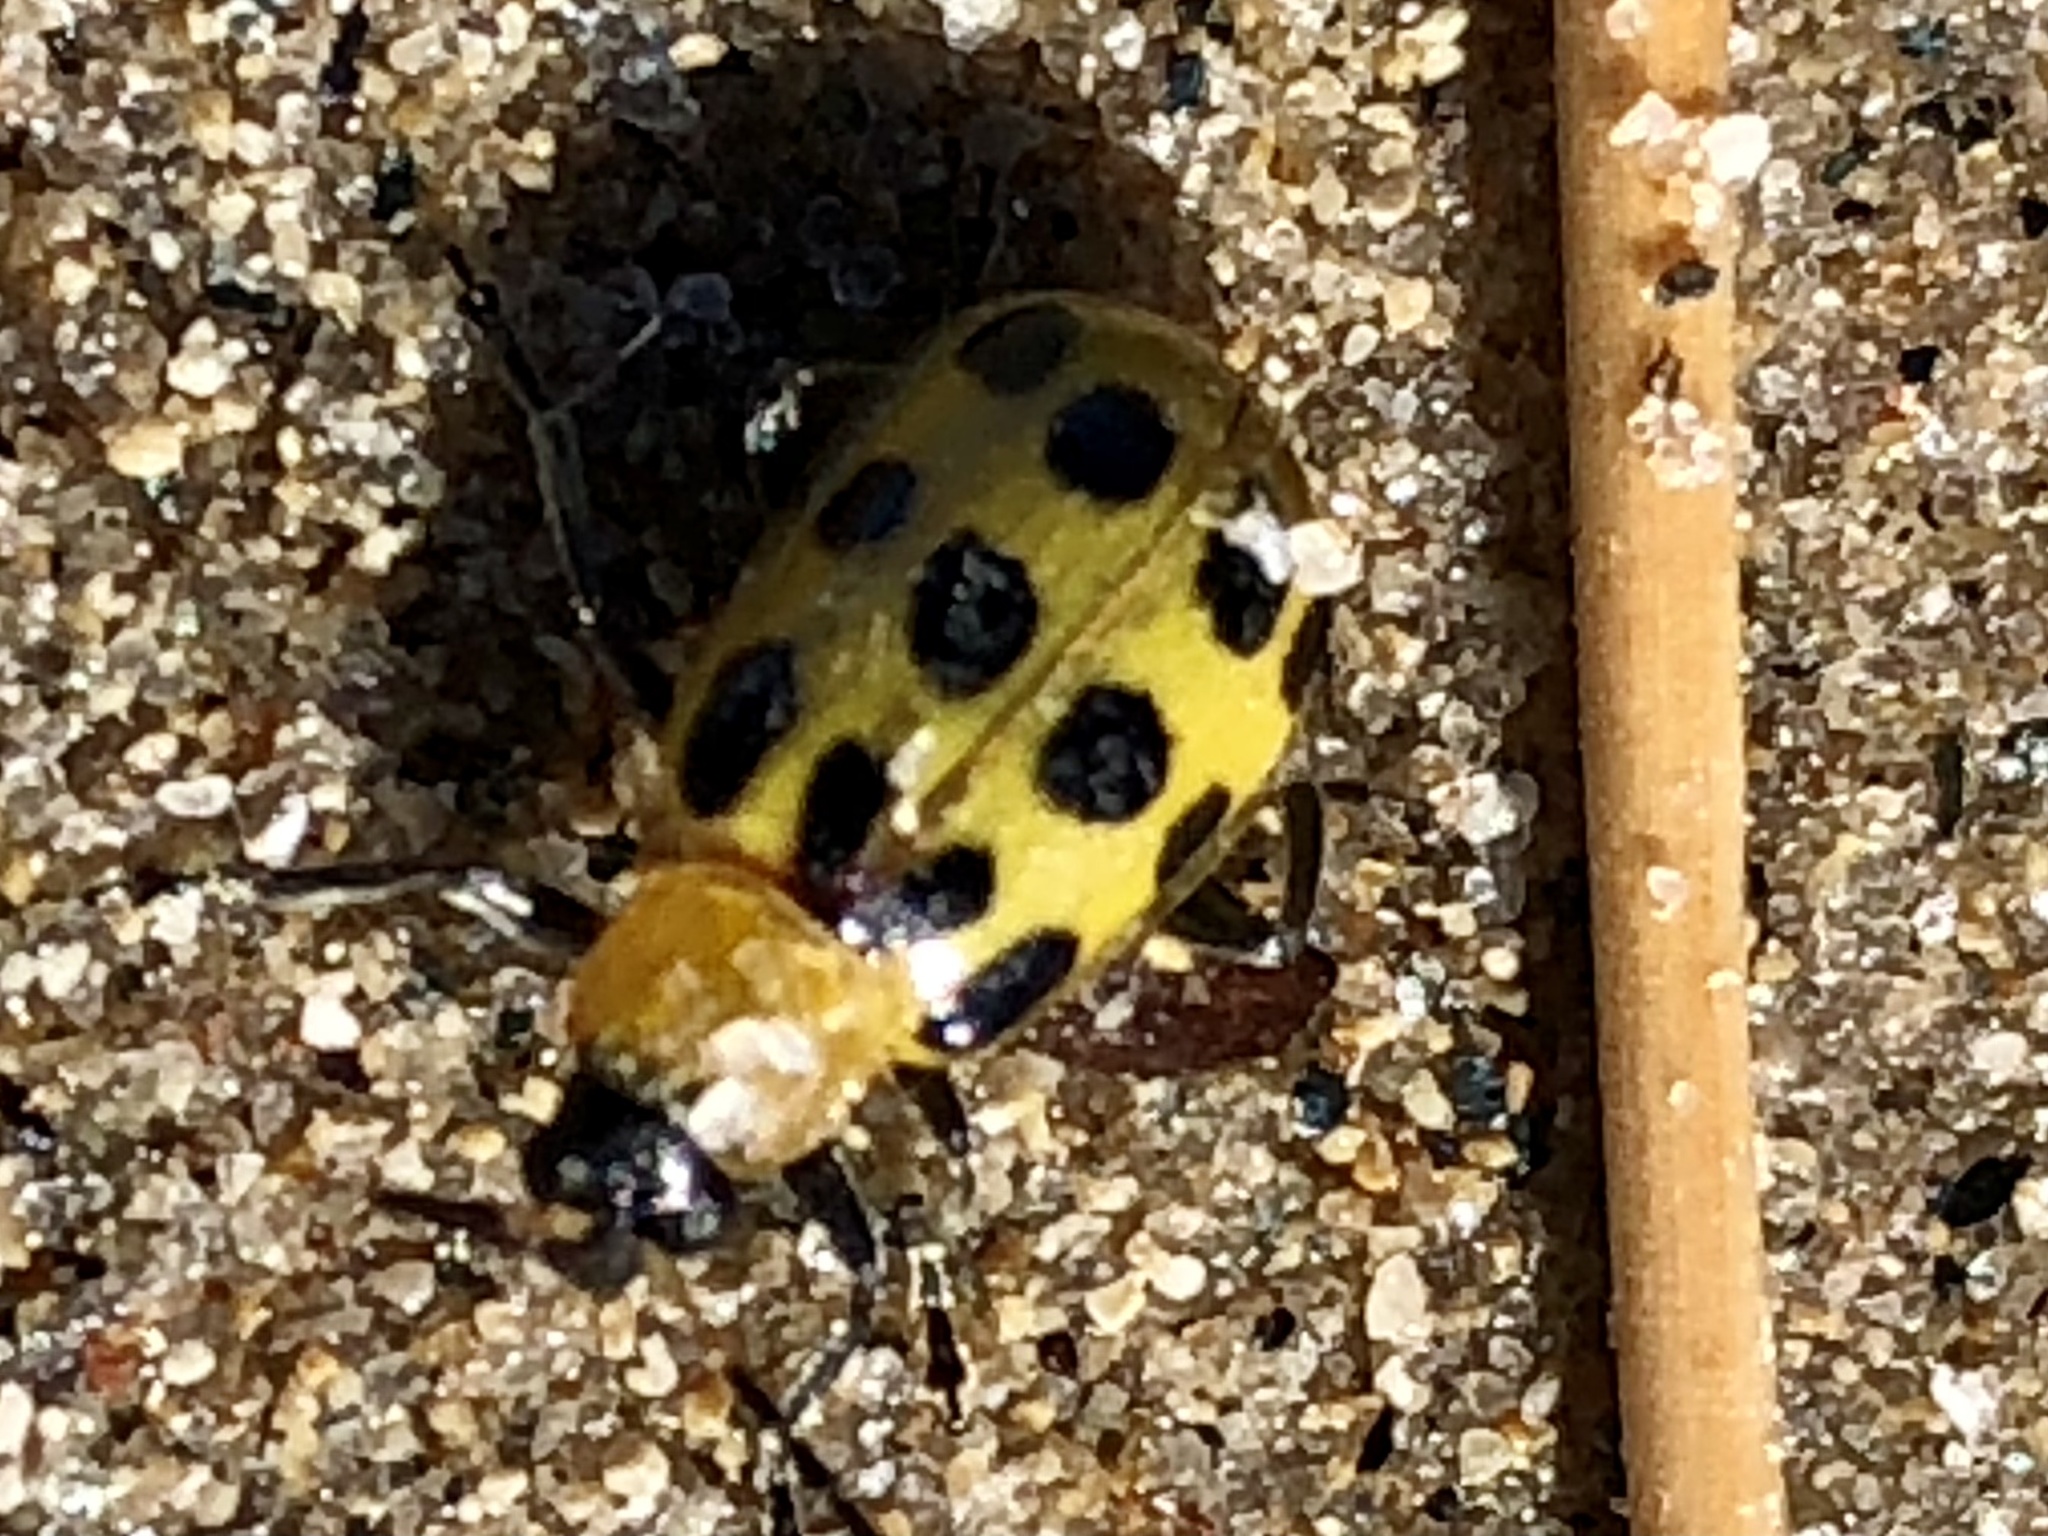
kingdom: Animalia
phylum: Arthropoda
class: Insecta
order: Coleoptera
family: Chrysomelidae
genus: Diabrotica
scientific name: Diabrotica undecimpunctata
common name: Spotted cucumber beetle
